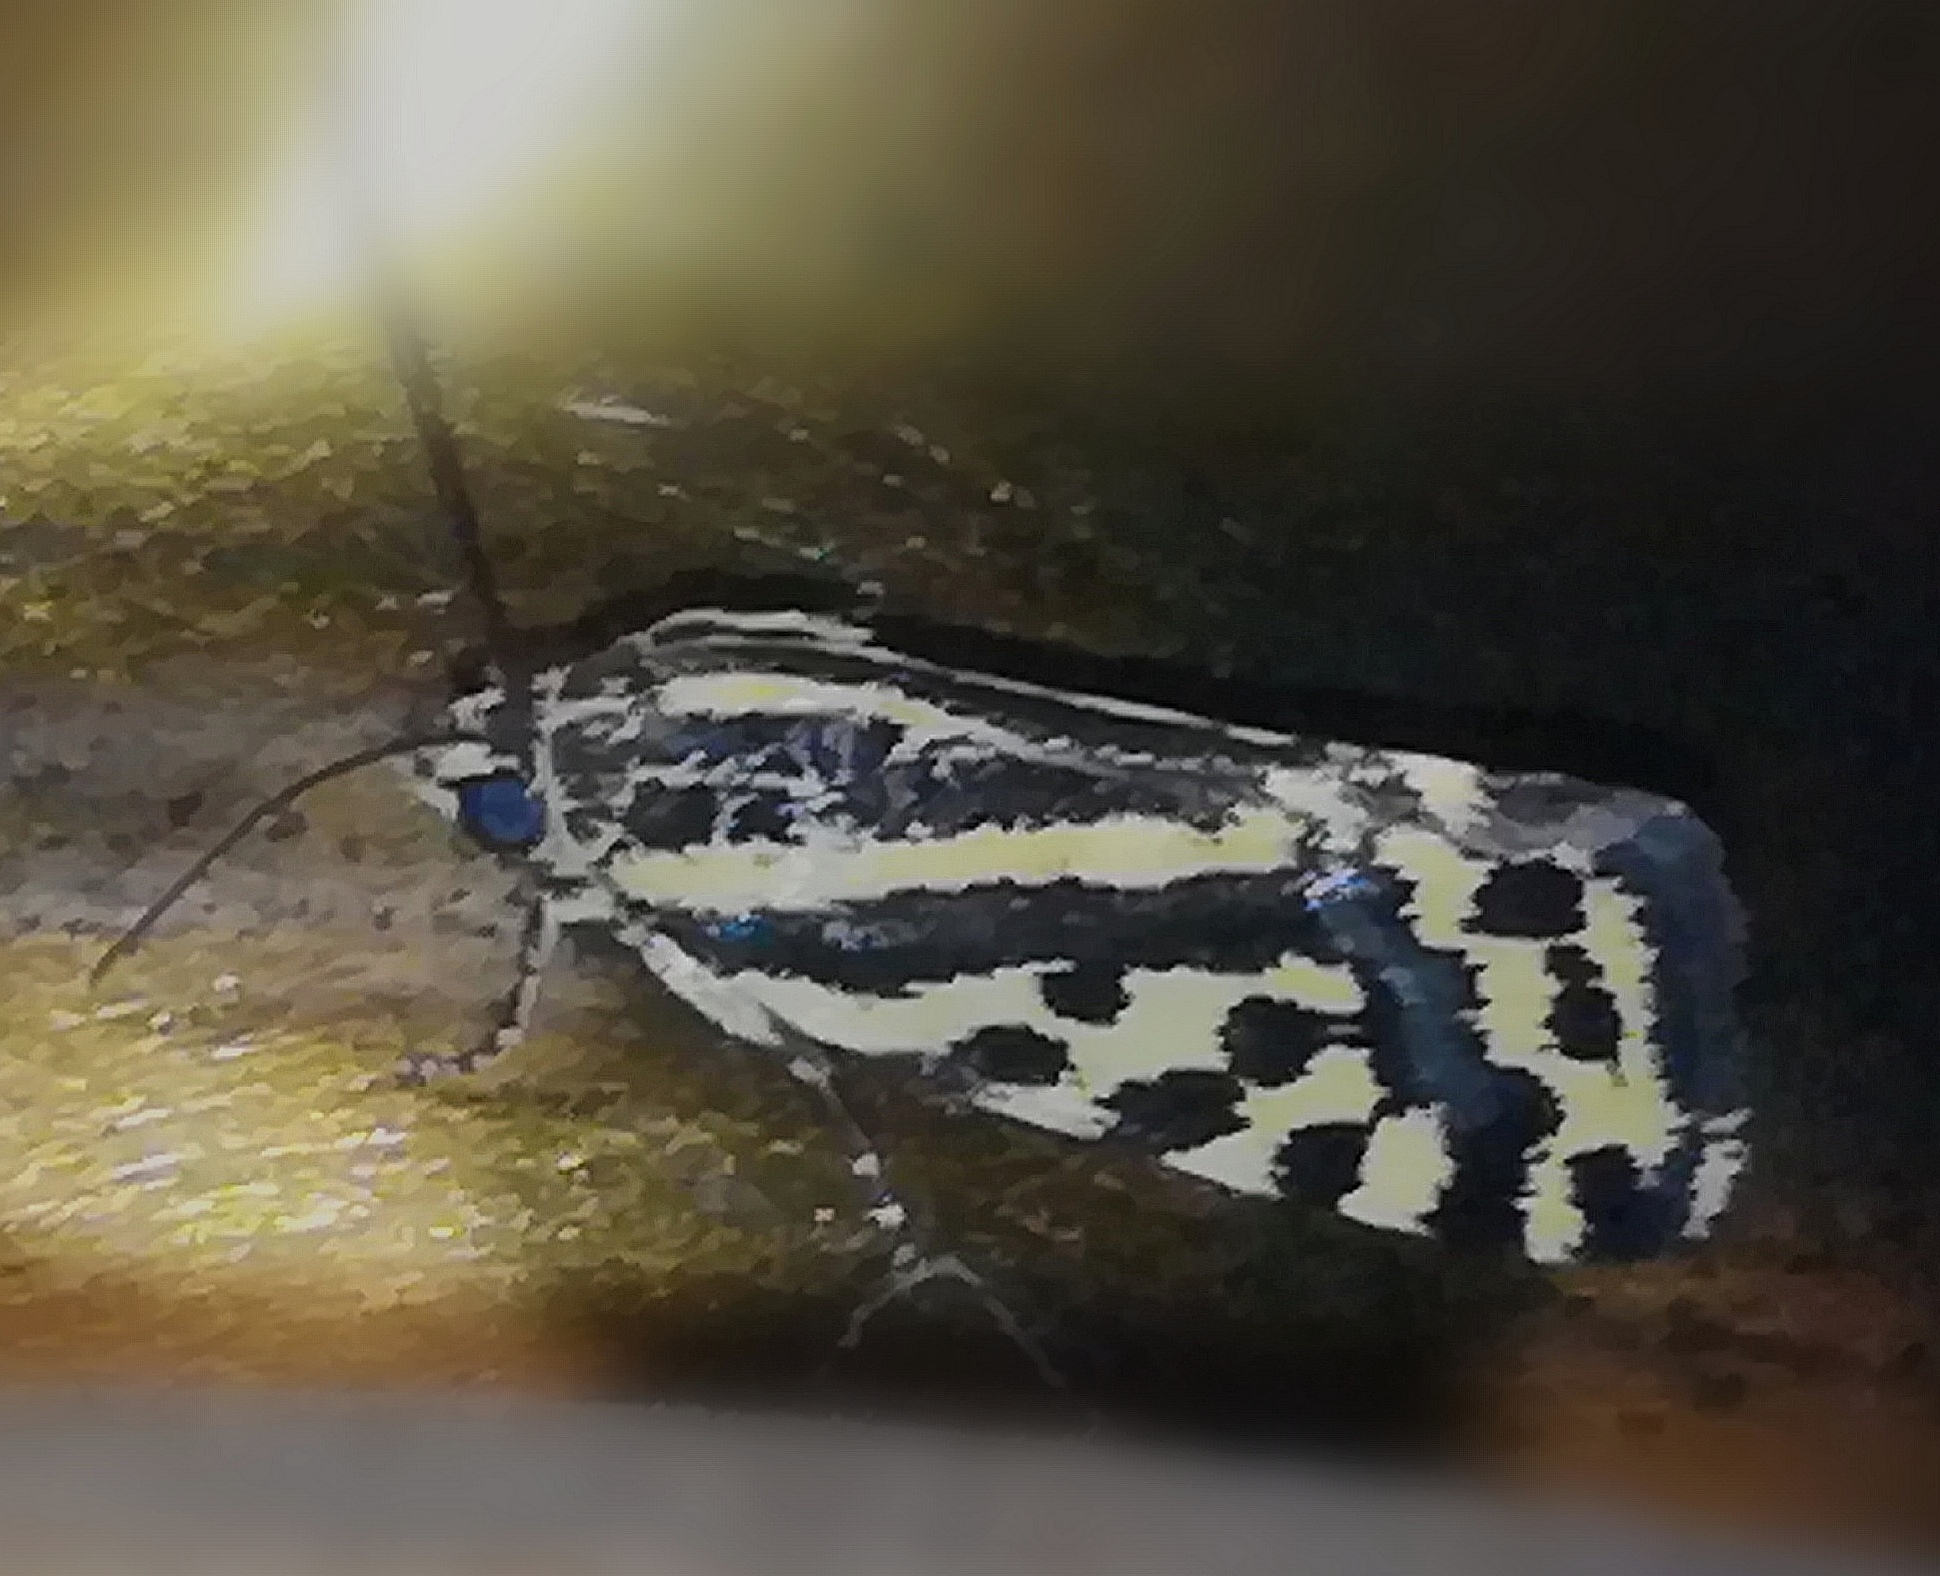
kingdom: Animalia
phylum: Arthropoda
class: Insecta
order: Lepidoptera
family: Noctuidae
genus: Acontia
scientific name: Acontia trabealis
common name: Spotted sulphur
